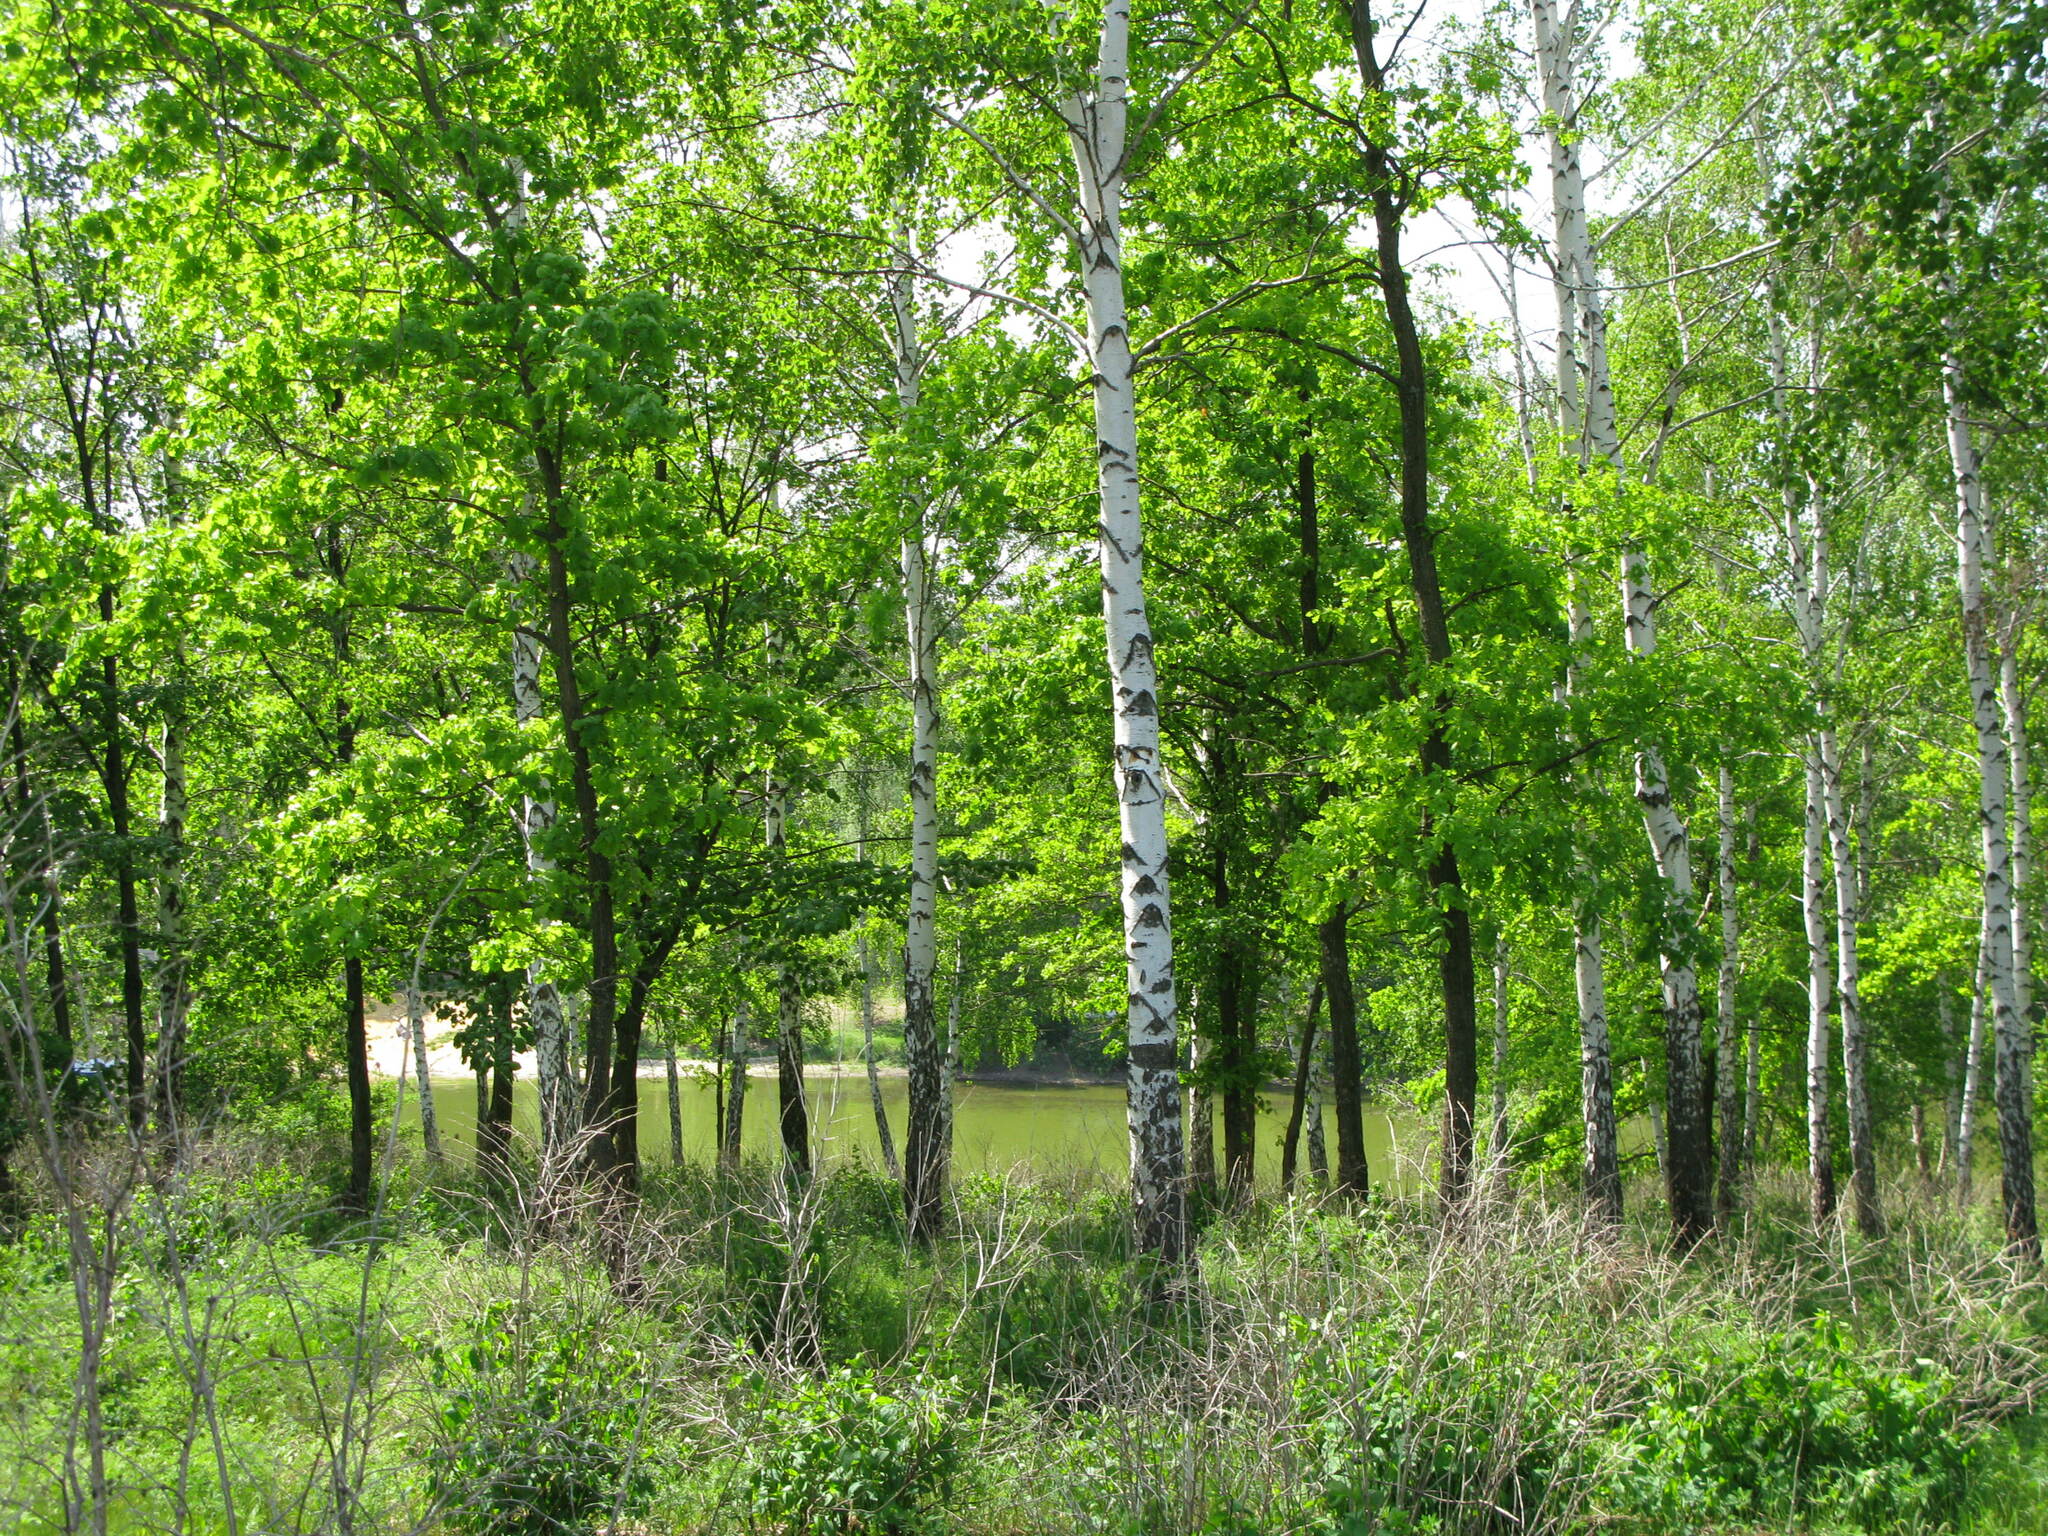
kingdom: Plantae
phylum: Tracheophyta
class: Magnoliopsida
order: Fagales
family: Betulaceae
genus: Betula
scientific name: Betula pendula
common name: Silver birch
